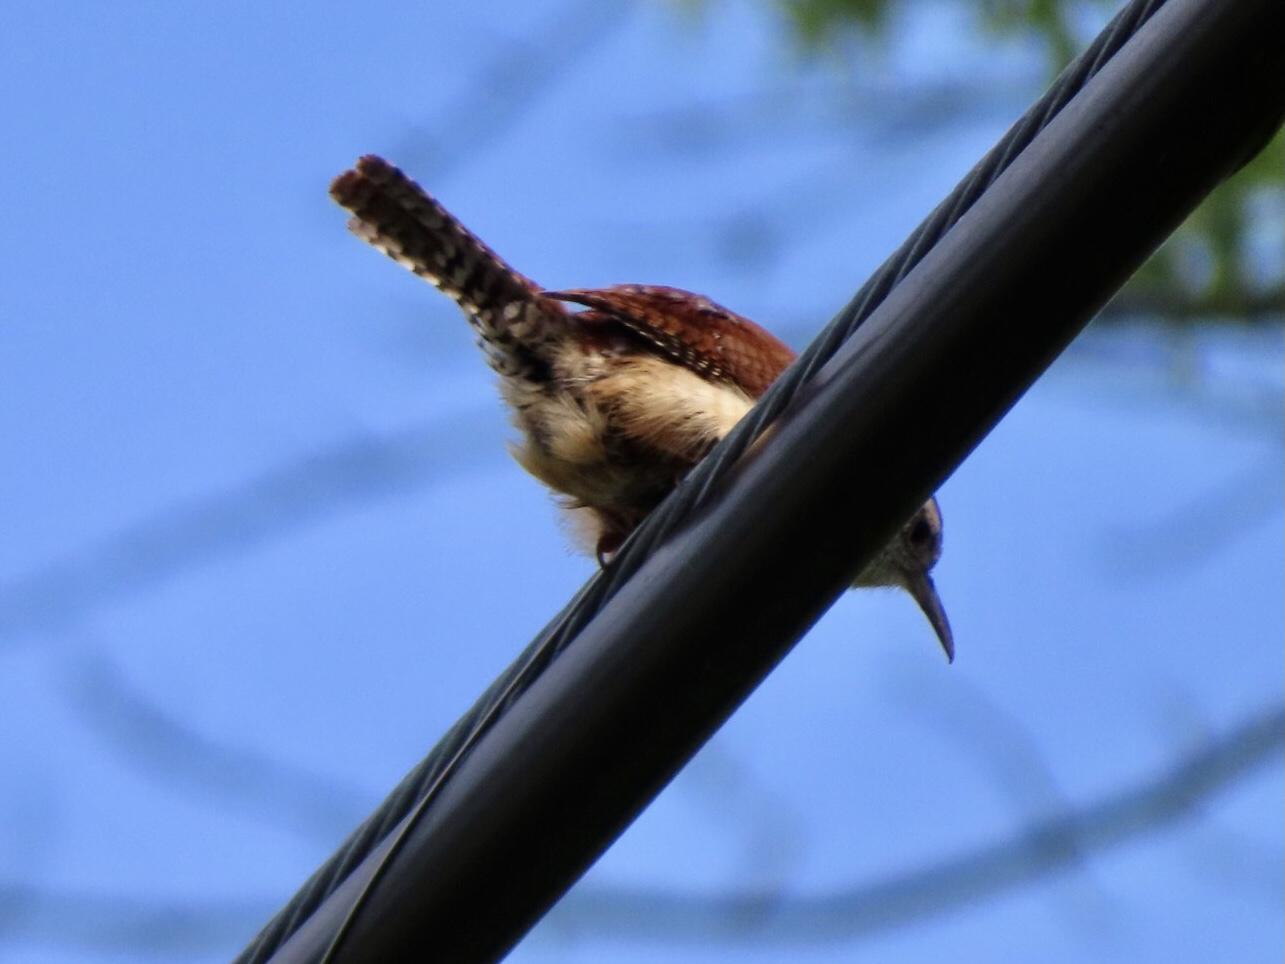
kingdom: Animalia
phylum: Chordata
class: Aves
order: Passeriformes
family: Troglodytidae
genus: Thryothorus
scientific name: Thryothorus ludovicianus
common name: Carolina wren
